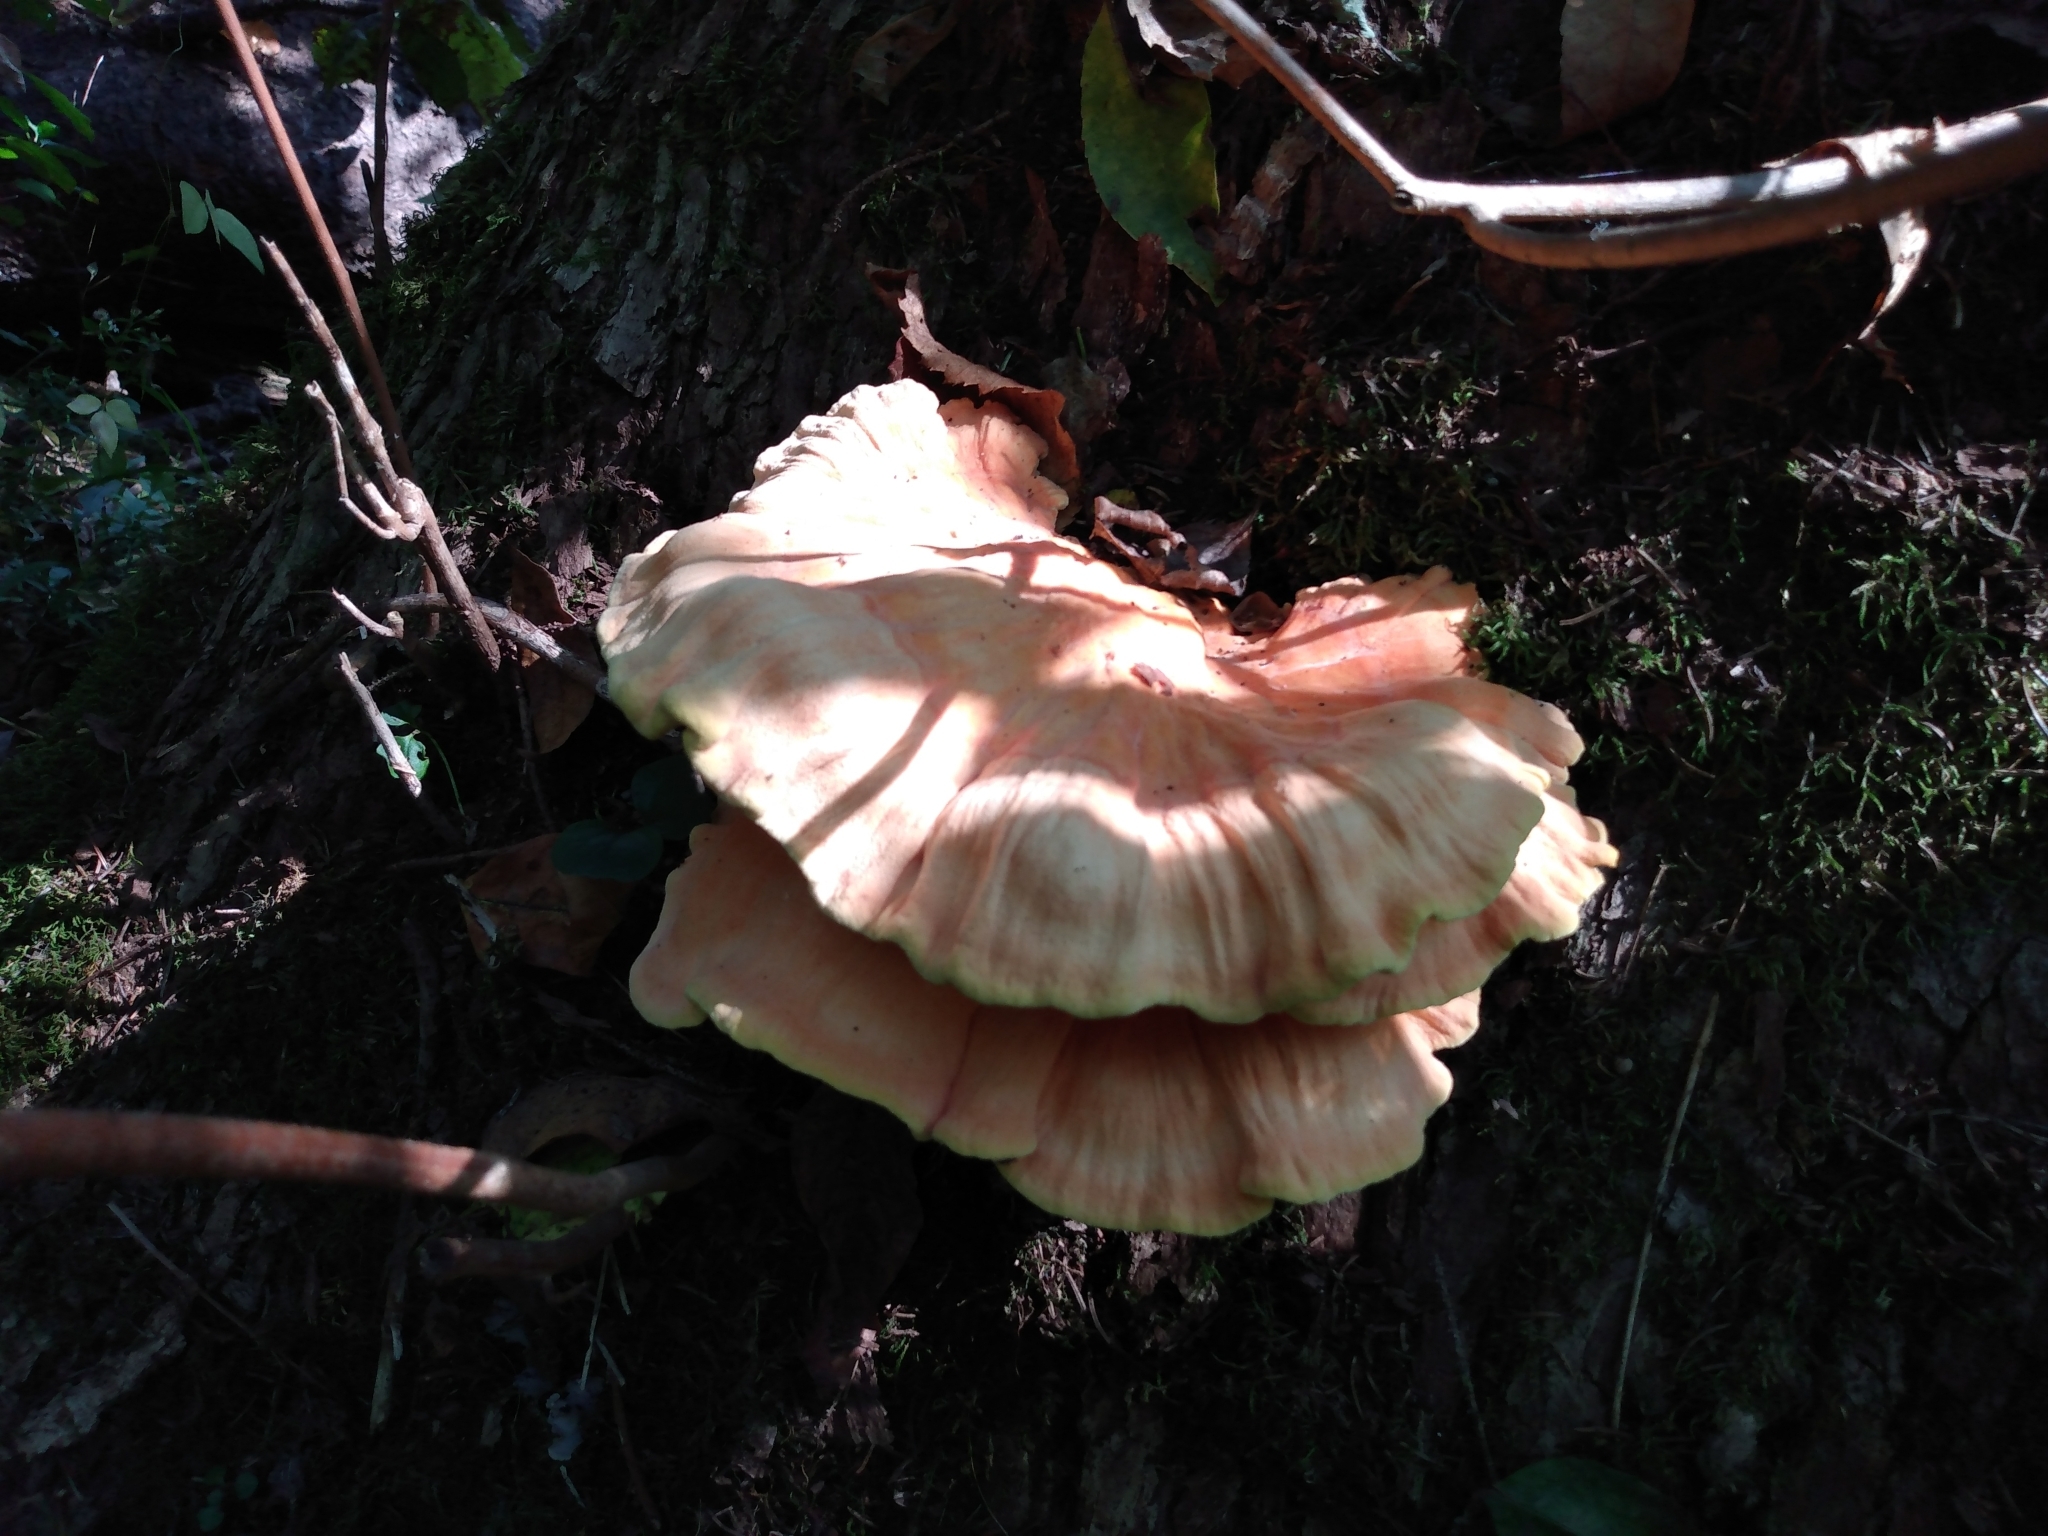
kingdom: Fungi
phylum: Basidiomycota
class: Agaricomycetes
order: Polyporales
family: Laetiporaceae
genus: Laetiporus
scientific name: Laetiporus sulphureus
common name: Chicken of the woods
